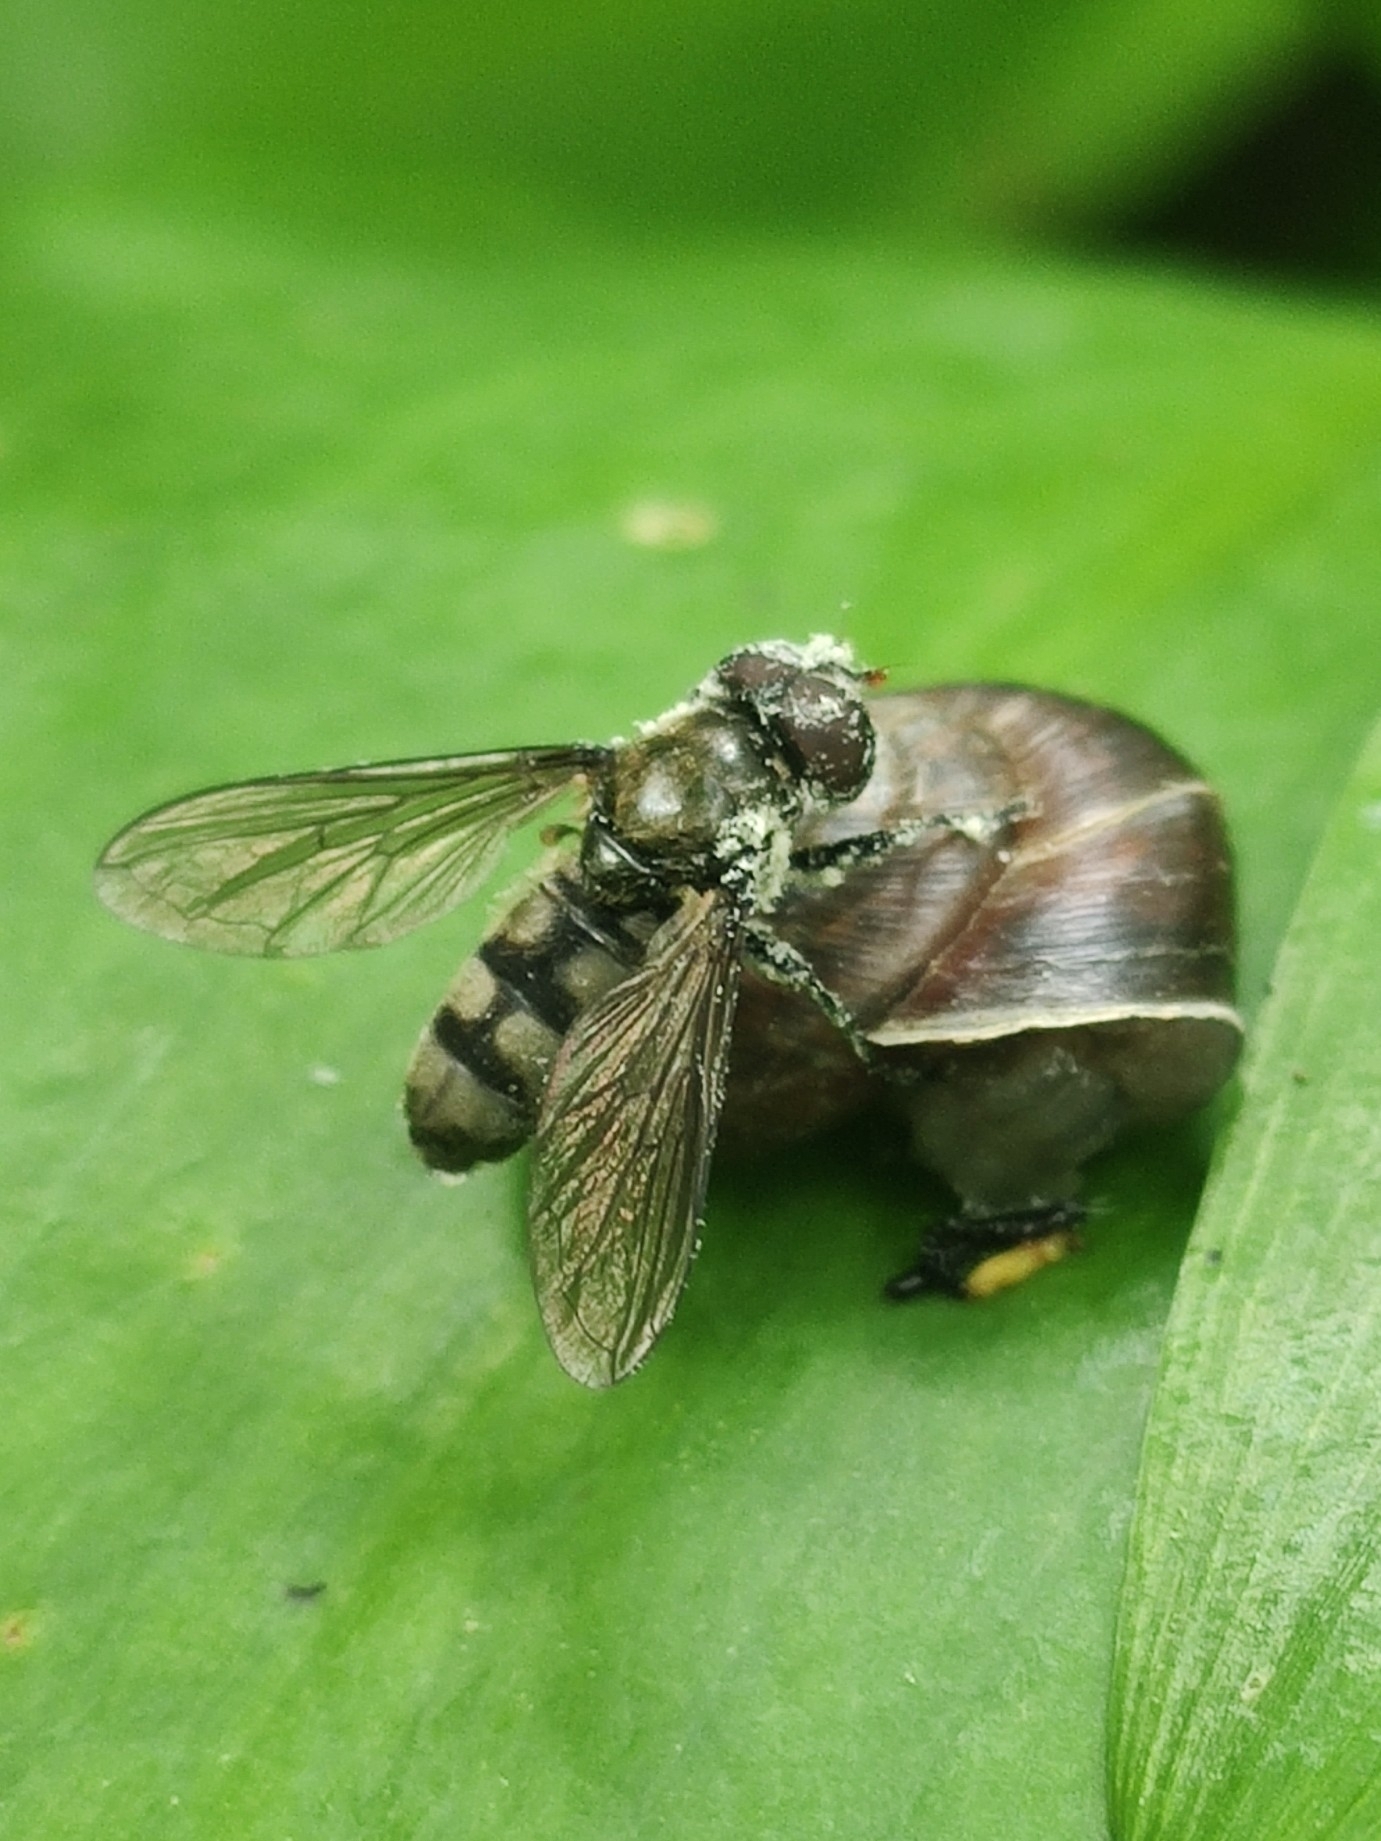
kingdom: Animalia
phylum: Arthropoda
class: Insecta
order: Diptera
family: Syrphidae
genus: Portevinia
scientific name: Portevinia maculata
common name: Ramson's hoverfly
